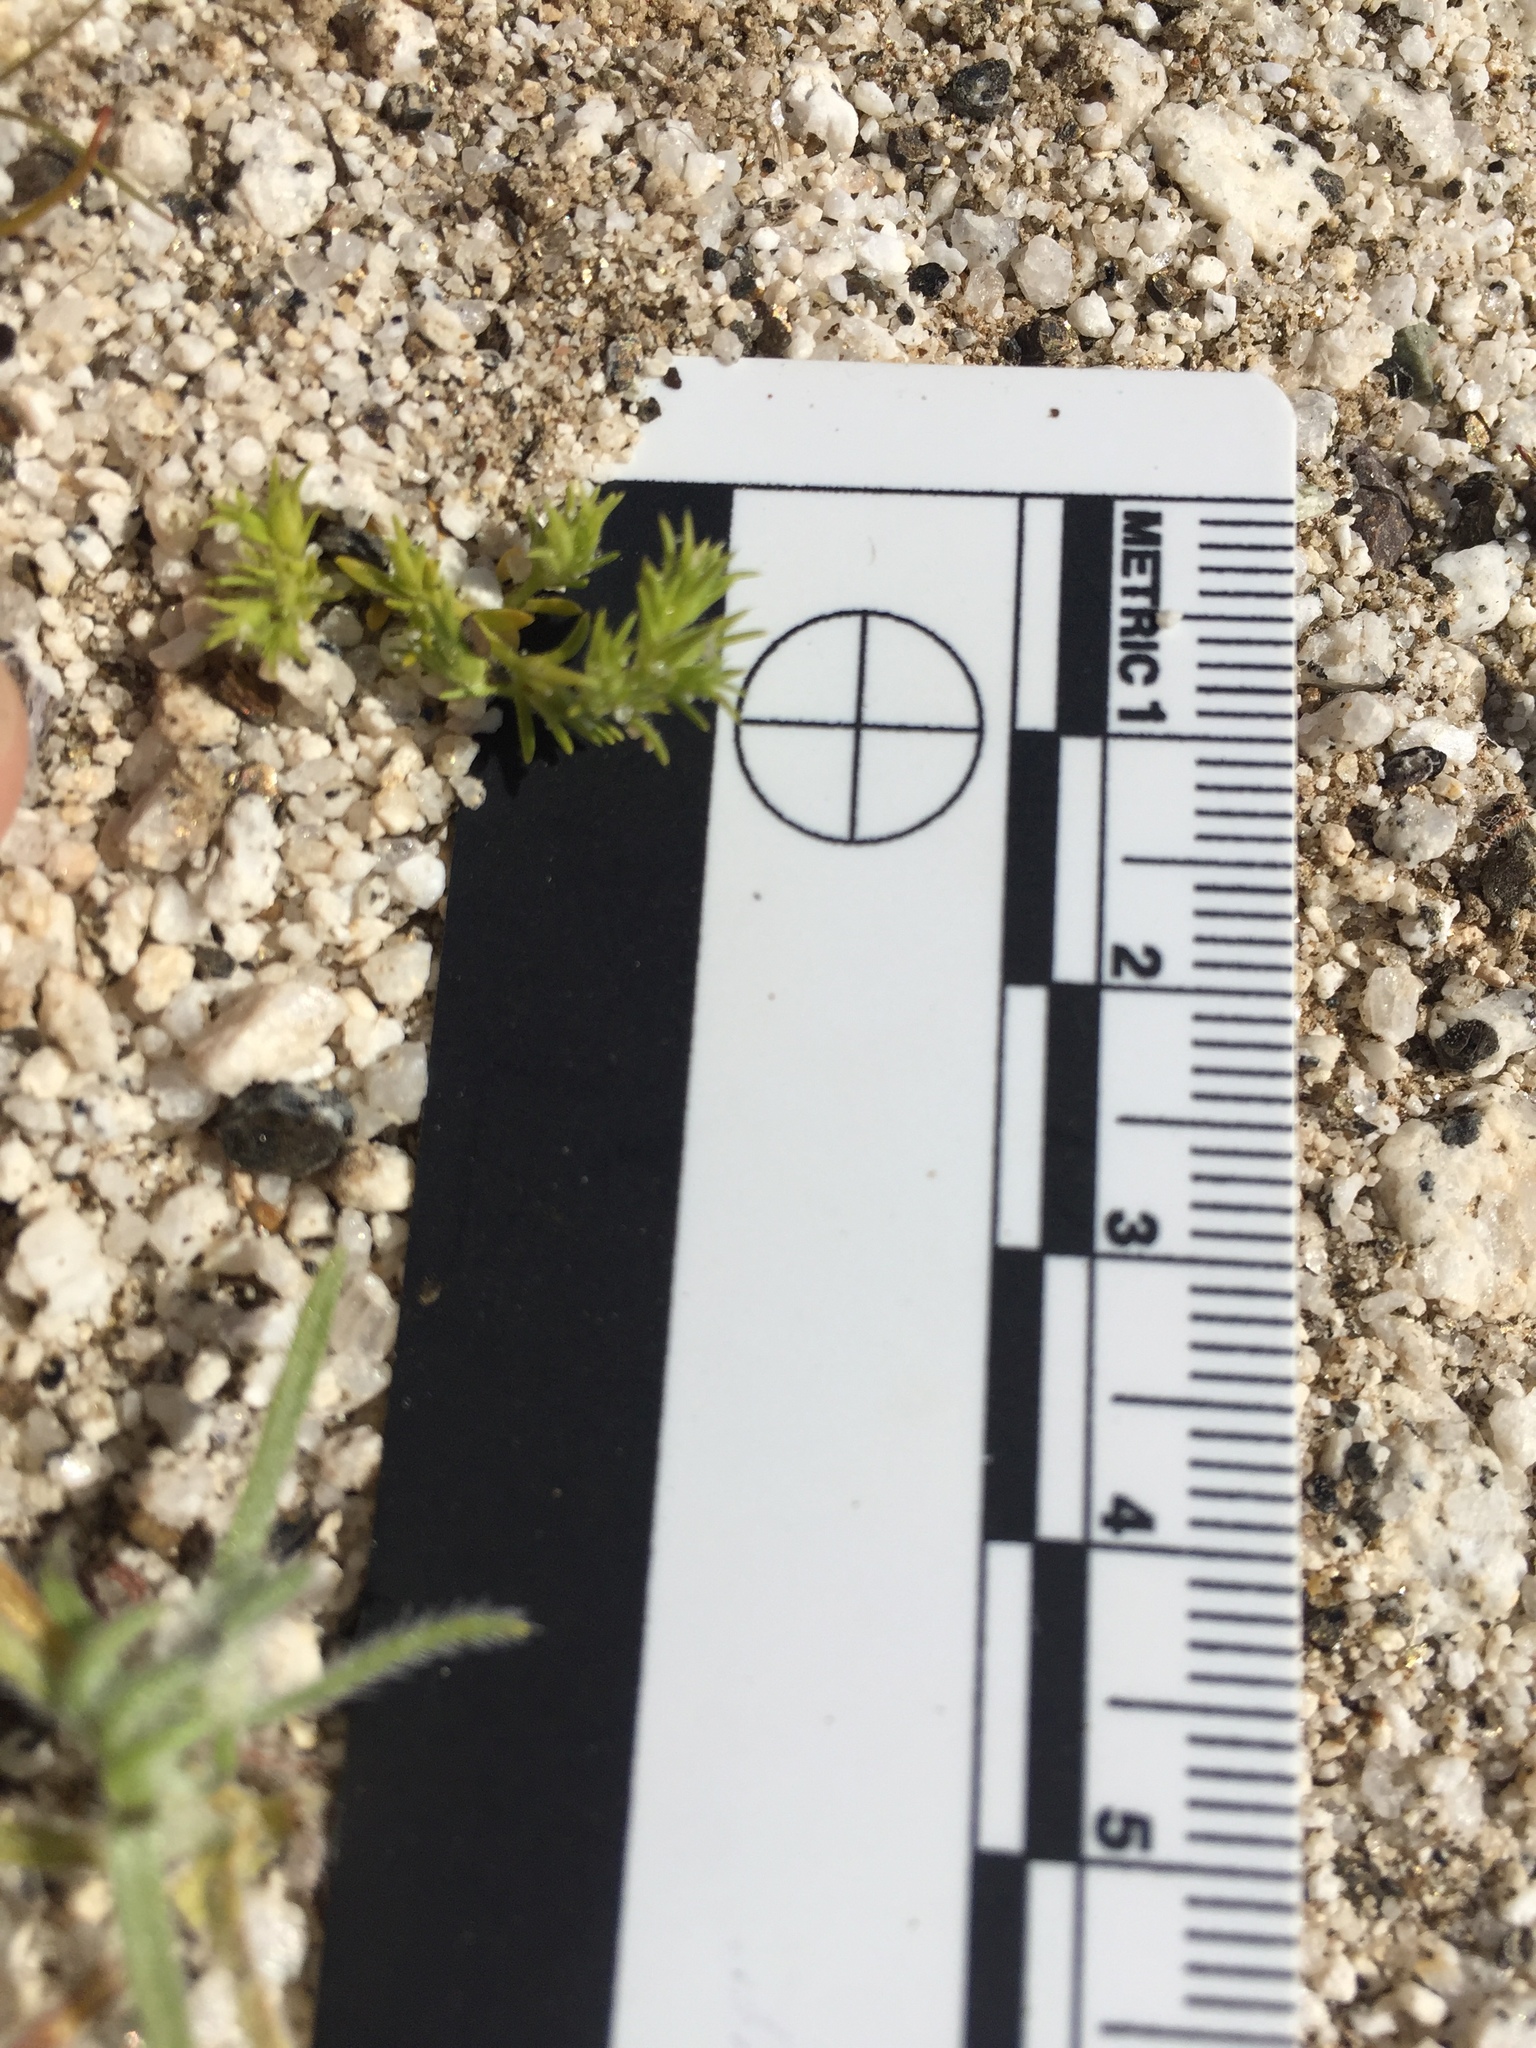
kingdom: Plantae
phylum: Tracheophyta
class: Magnoliopsida
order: Caryophyllales
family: Caryophyllaceae
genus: Loeflingia
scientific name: Loeflingia squarrosa
